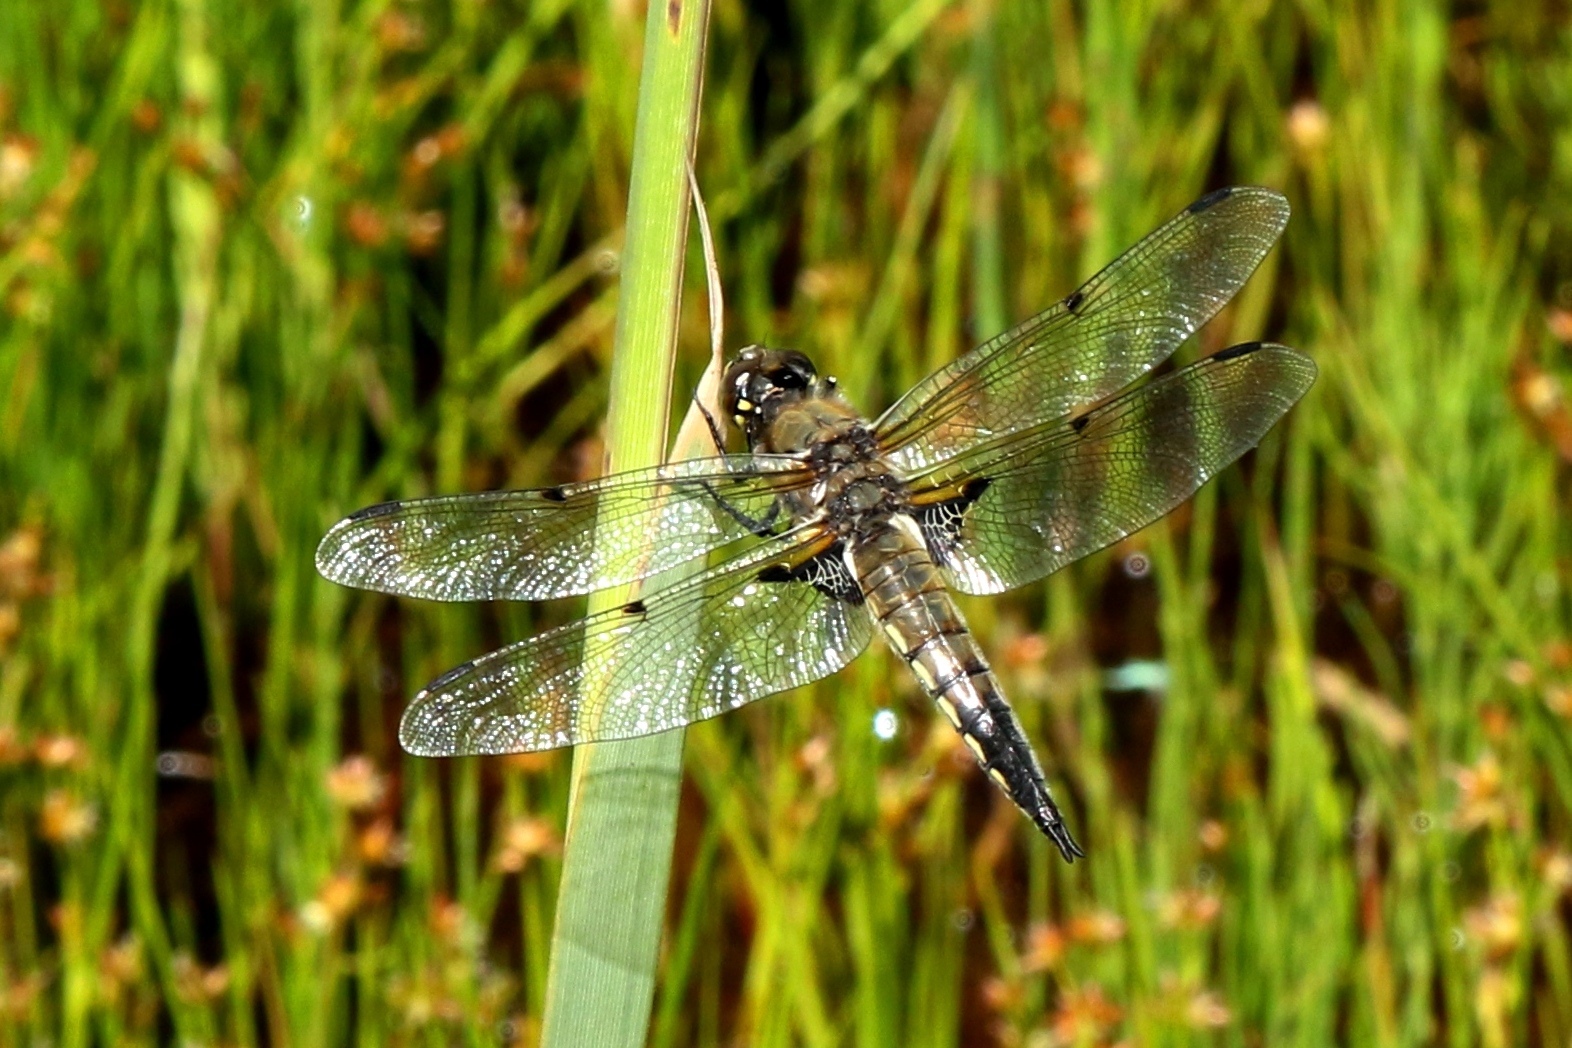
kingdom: Animalia
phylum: Arthropoda
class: Insecta
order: Odonata
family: Libellulidae
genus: Libellula
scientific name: Libellula quadrimaculata
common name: Four-spotted chaser
